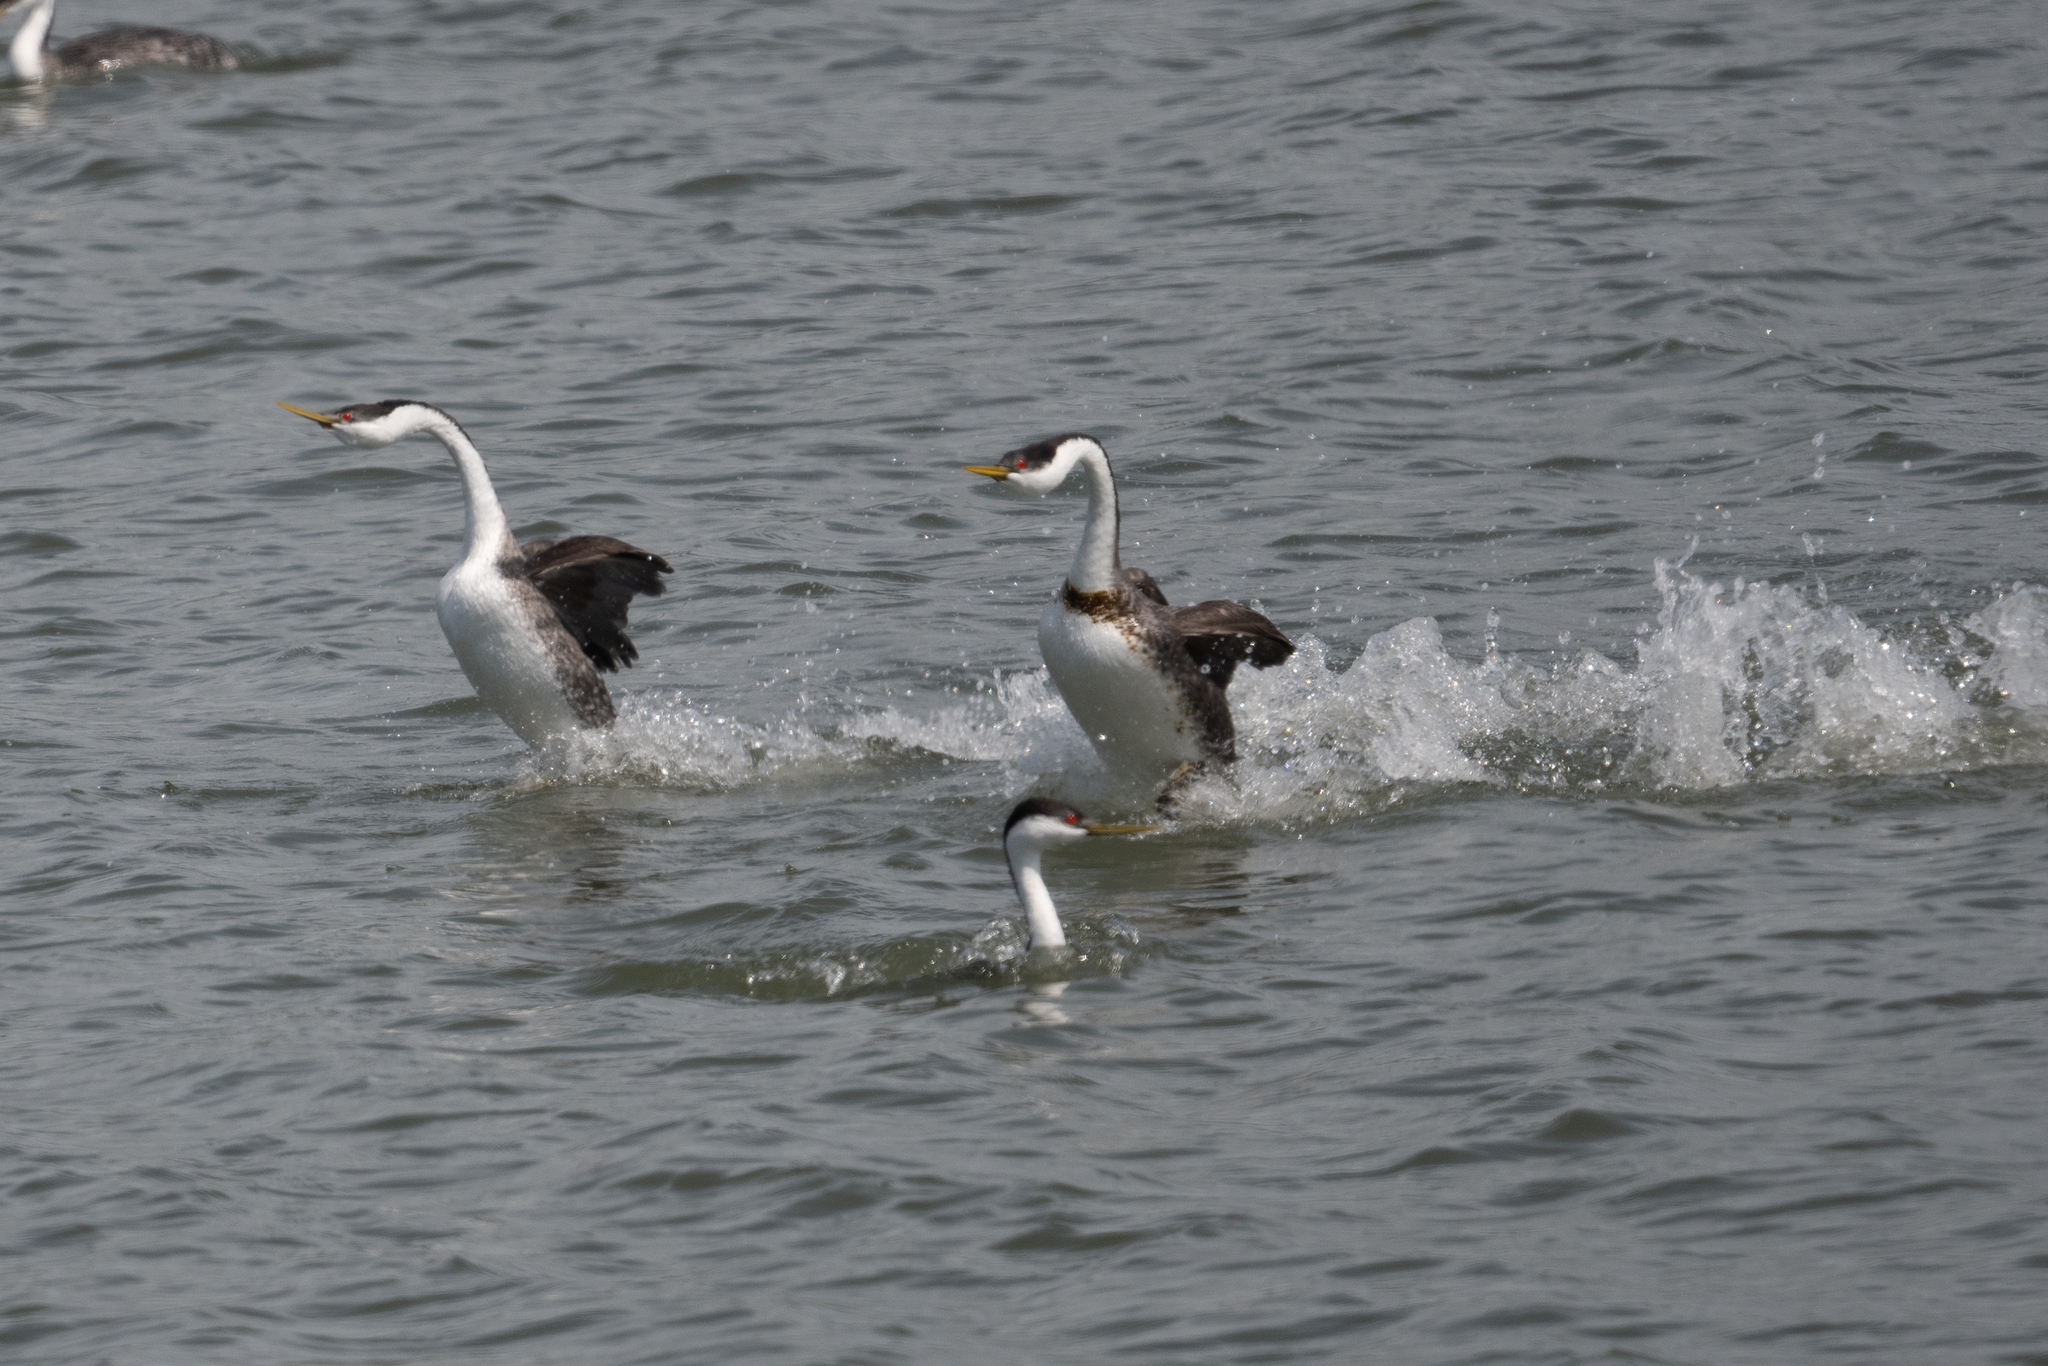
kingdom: Animalia
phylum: Chordata
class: Aves
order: Podicipediformes
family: Podicipedidae
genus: Aechmophorus
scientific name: Aechmophorus occidentalis
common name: Western grebe
